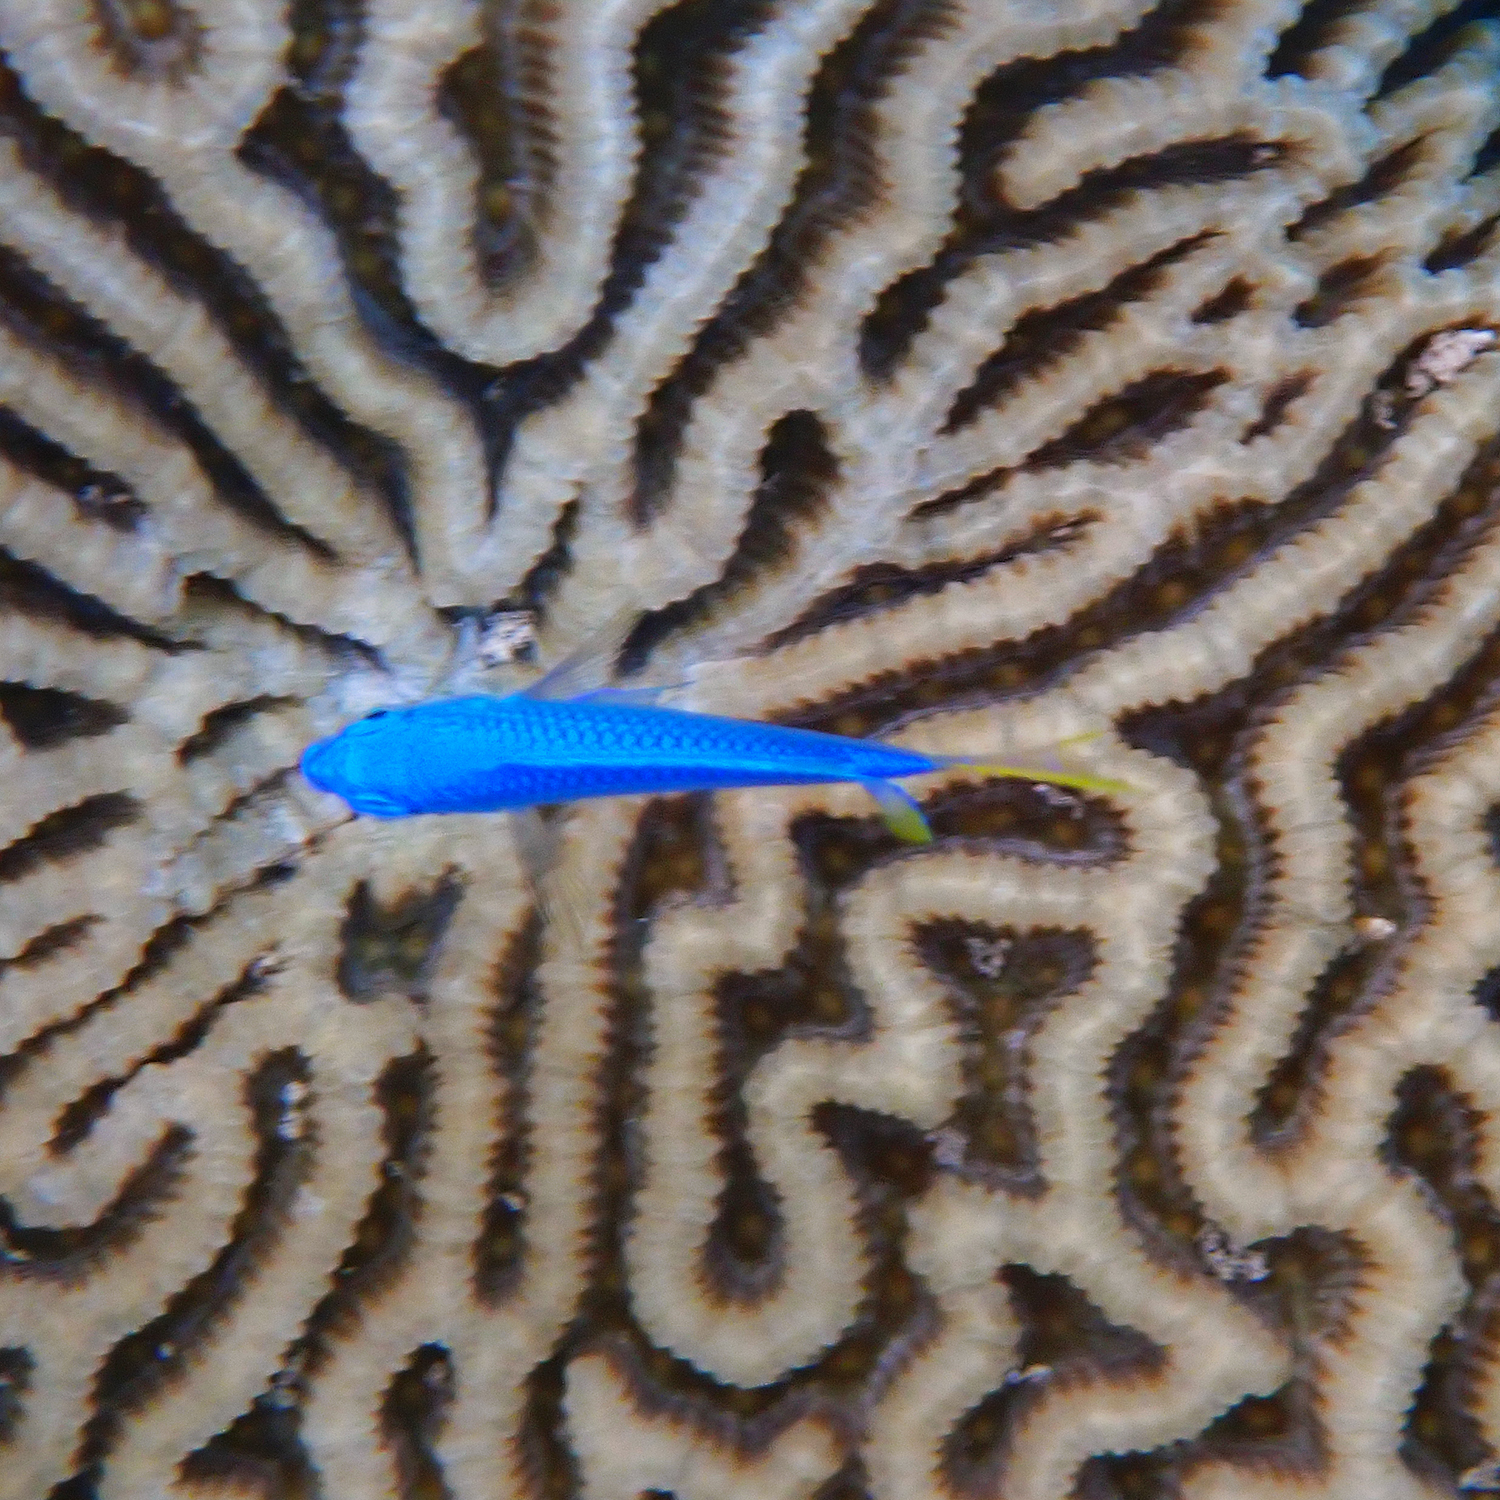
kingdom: Animalia
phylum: Chordata
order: Perciformes
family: Pomacentridae
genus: Pomacentrus
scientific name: Pomacentrus pavo
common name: Sapphire damsel
